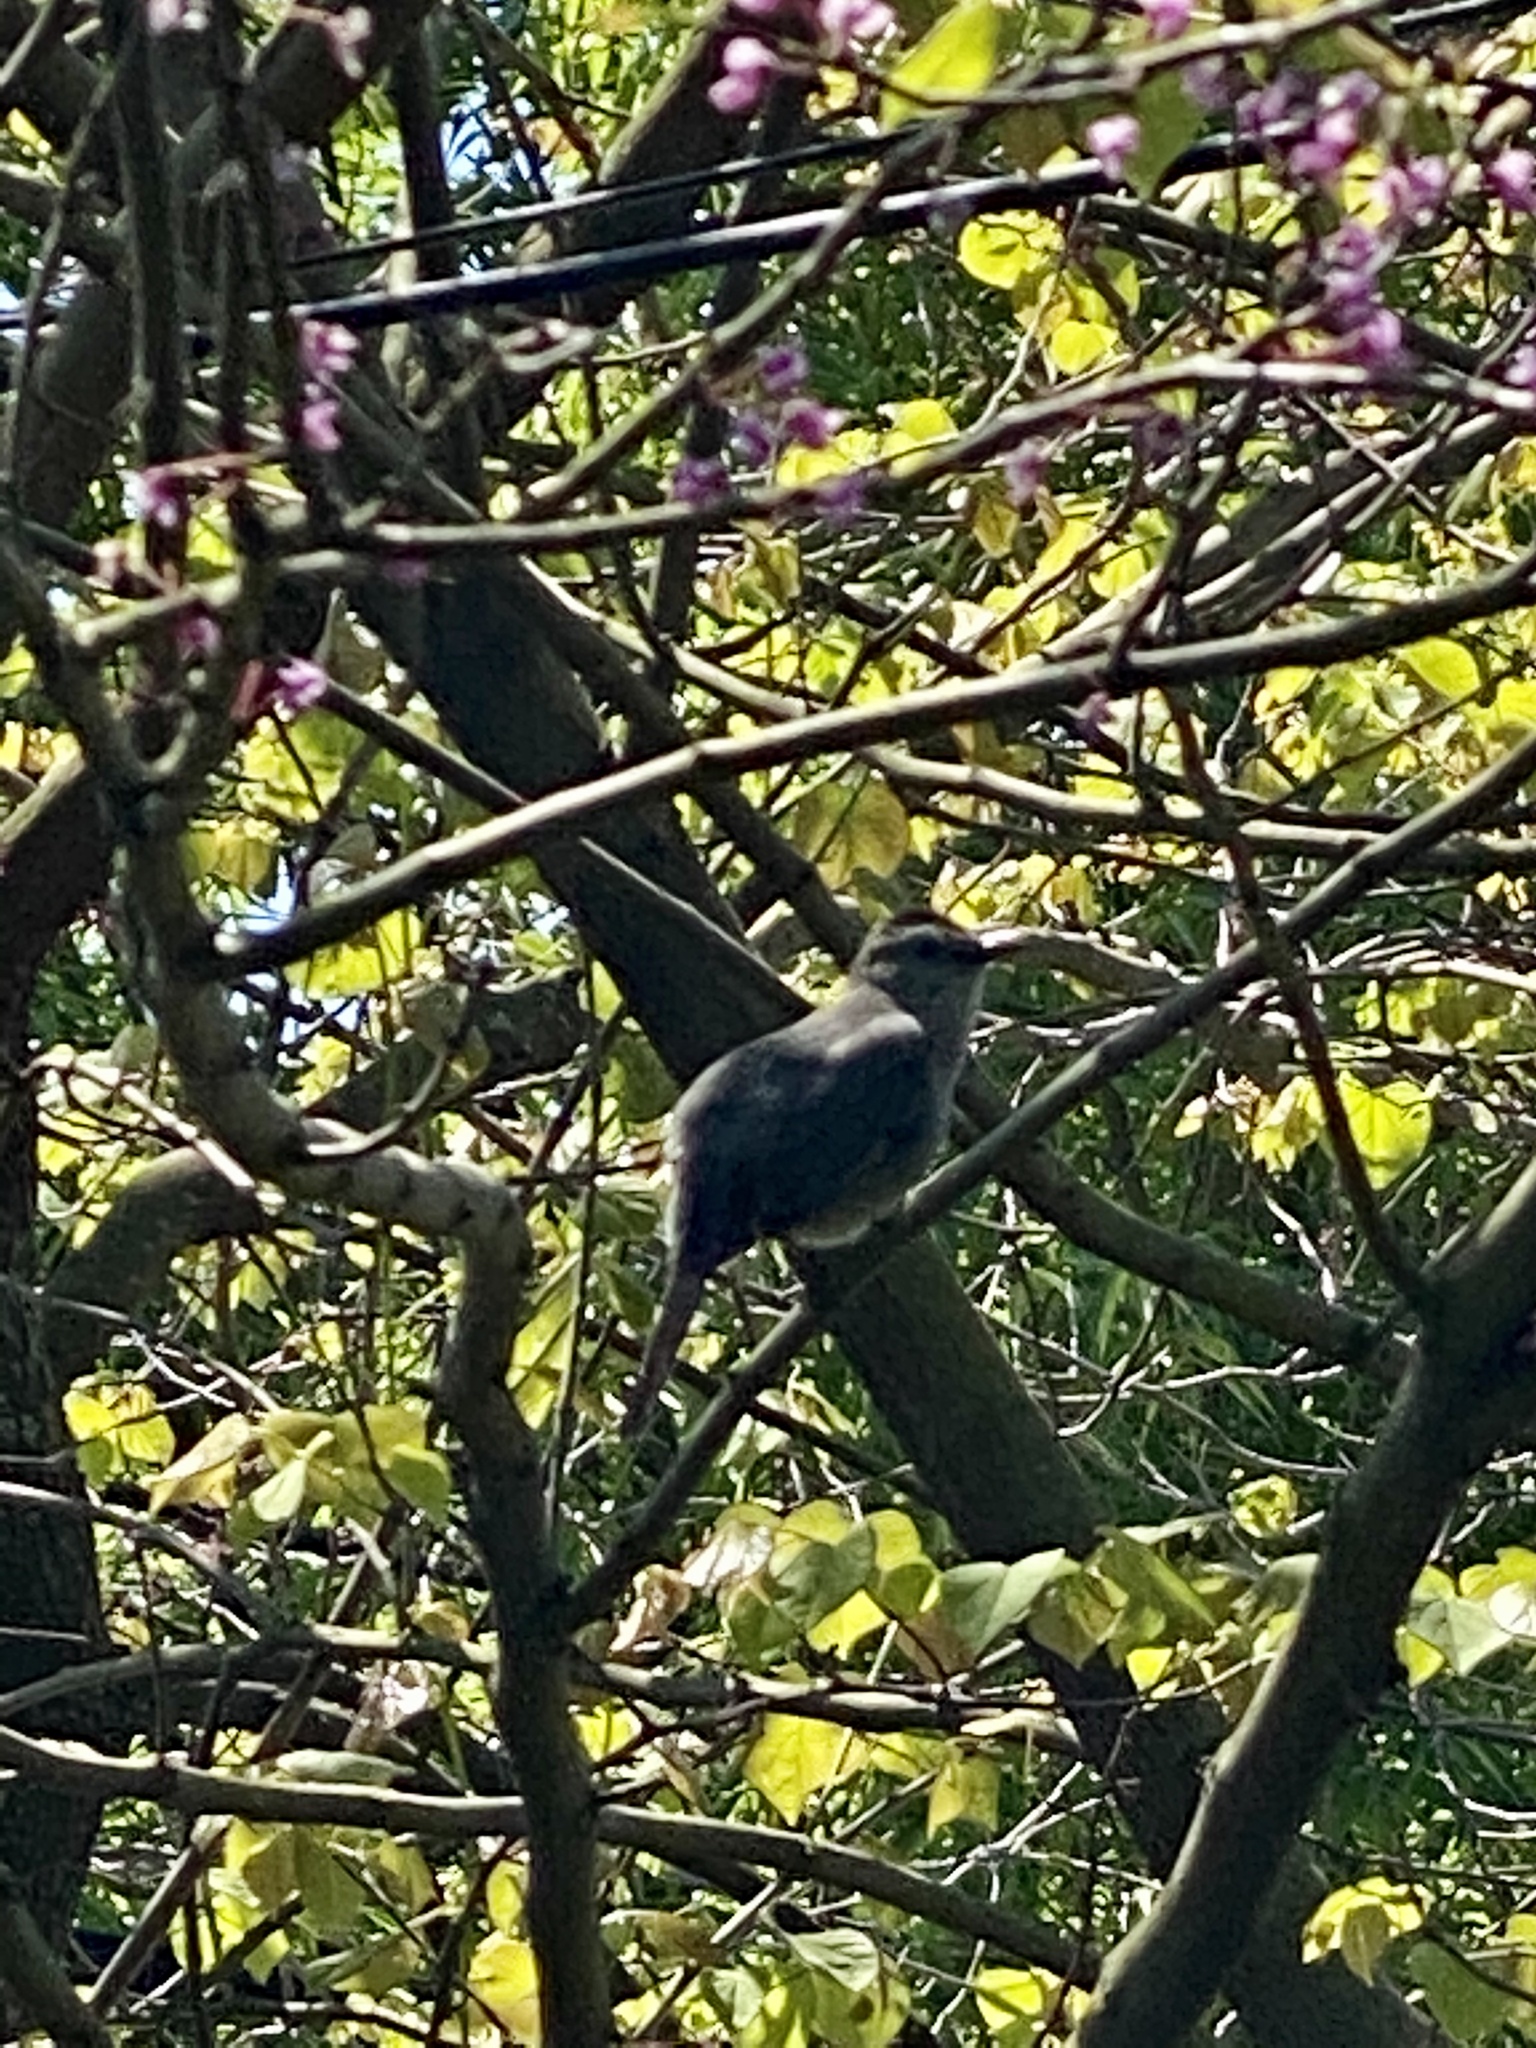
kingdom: Animalia
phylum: Chordata
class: Aves
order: Passeriformes
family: Mimidae
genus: Dumetella
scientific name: Dumetella carolinensis
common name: Gray catbird
